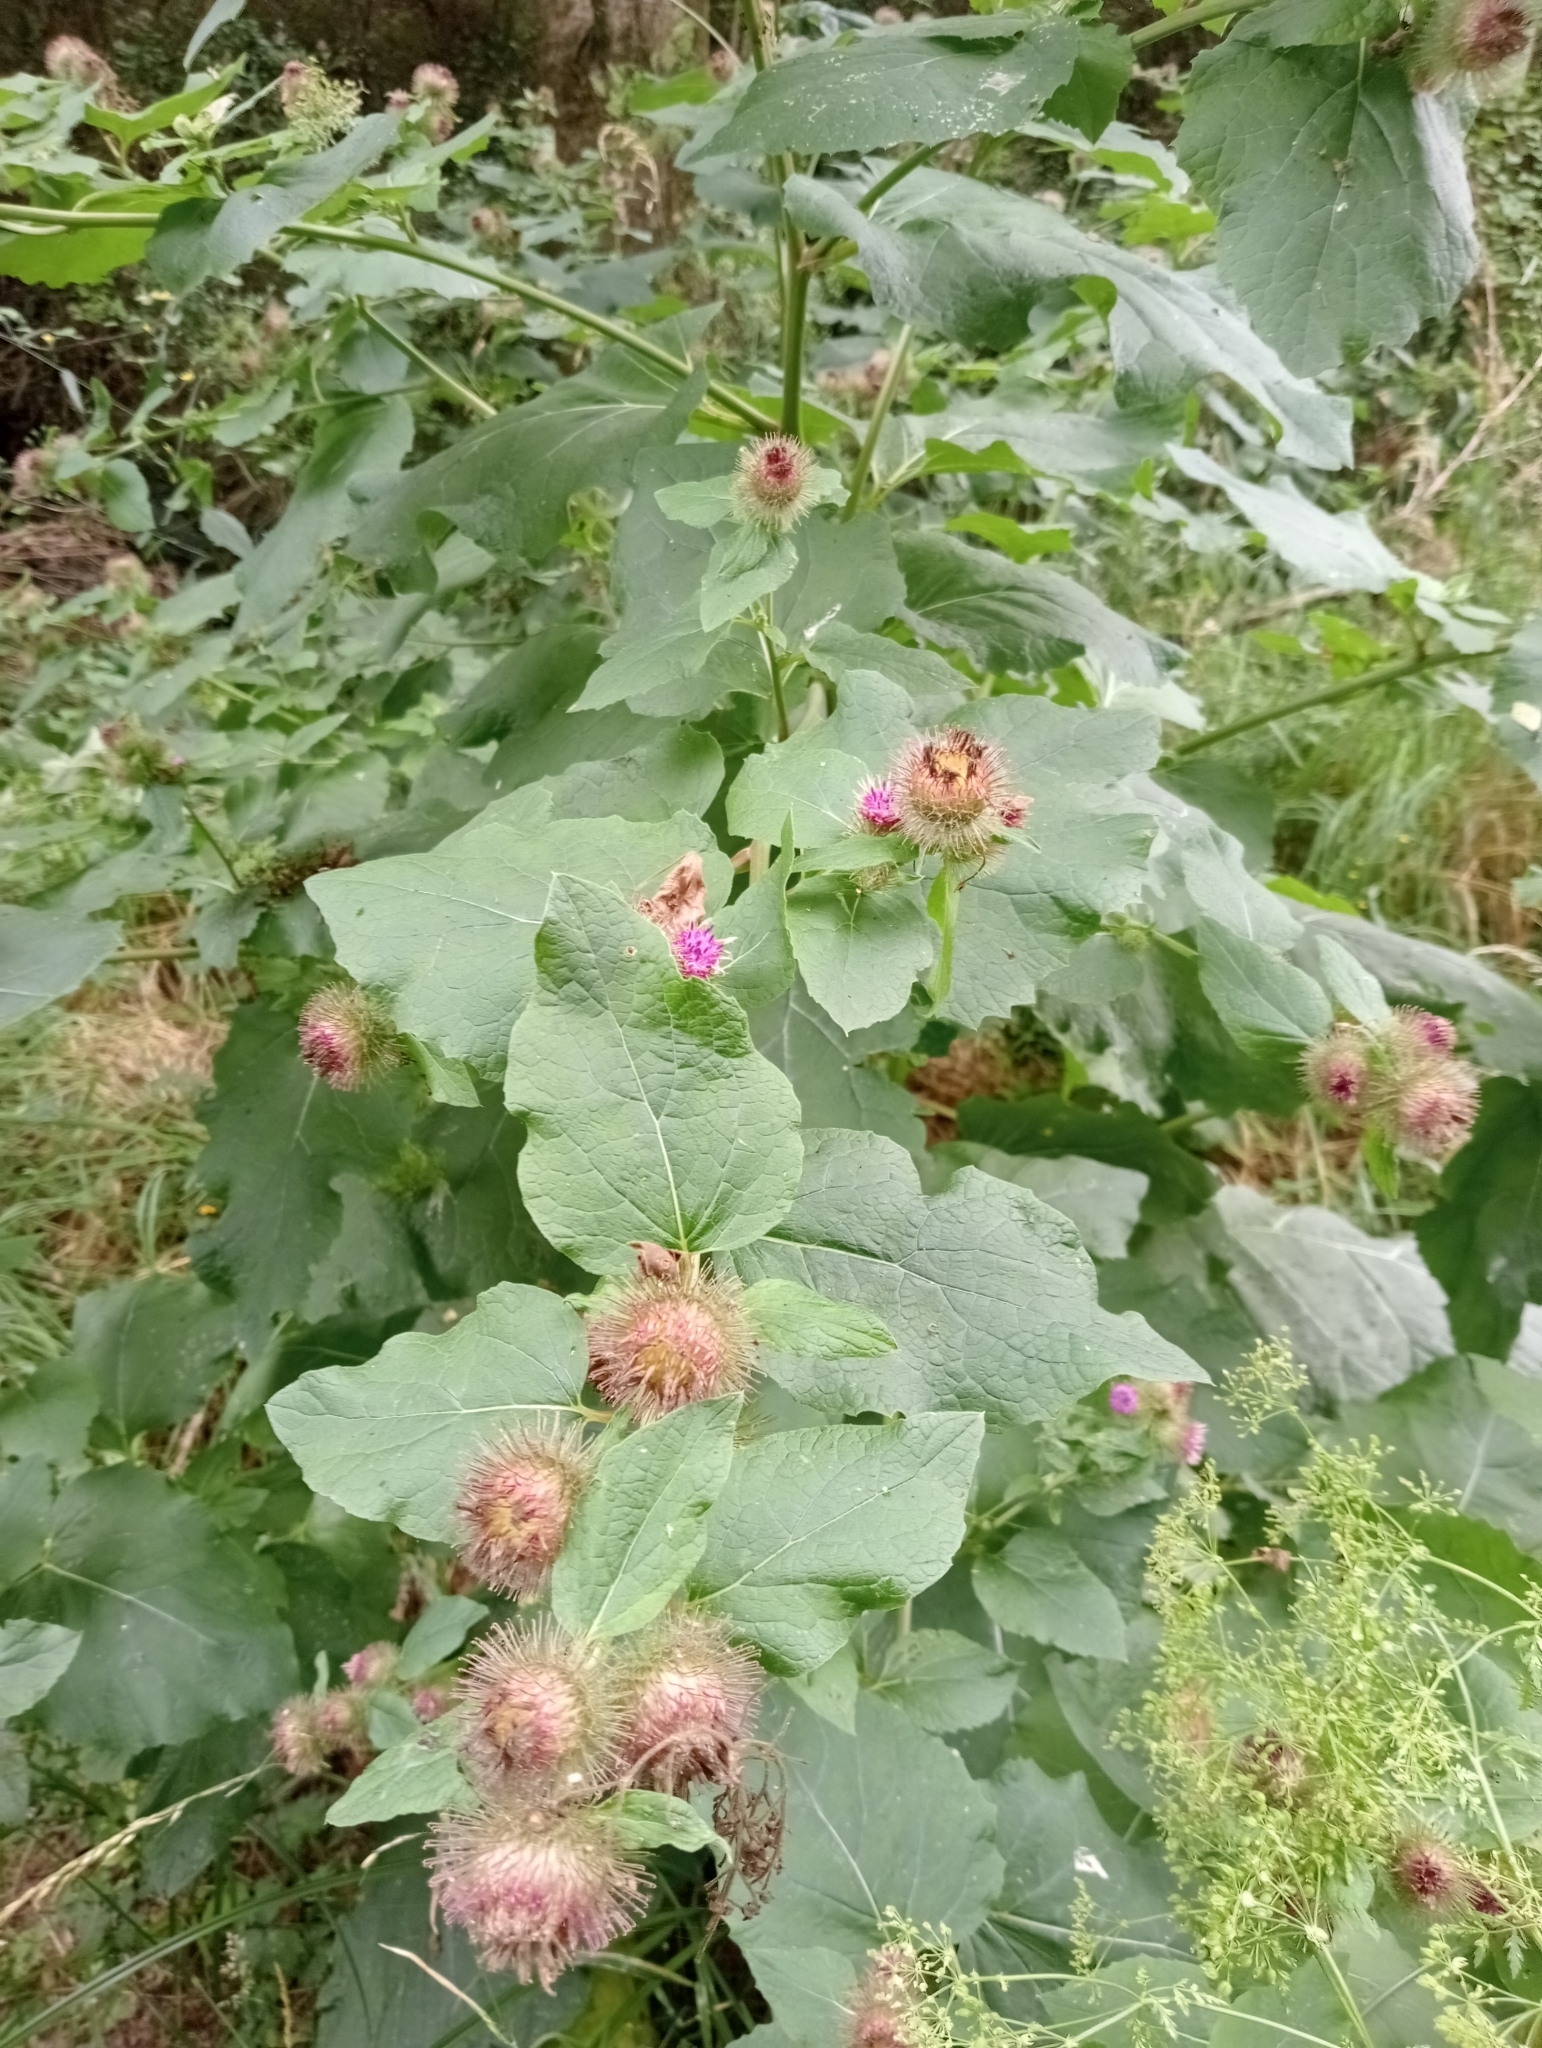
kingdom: Plantae
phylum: Tracheophyta
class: Magnoliopsida
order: Asterales
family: Asteraceae
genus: Arctium
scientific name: Arctium minus
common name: Lesser burdock
